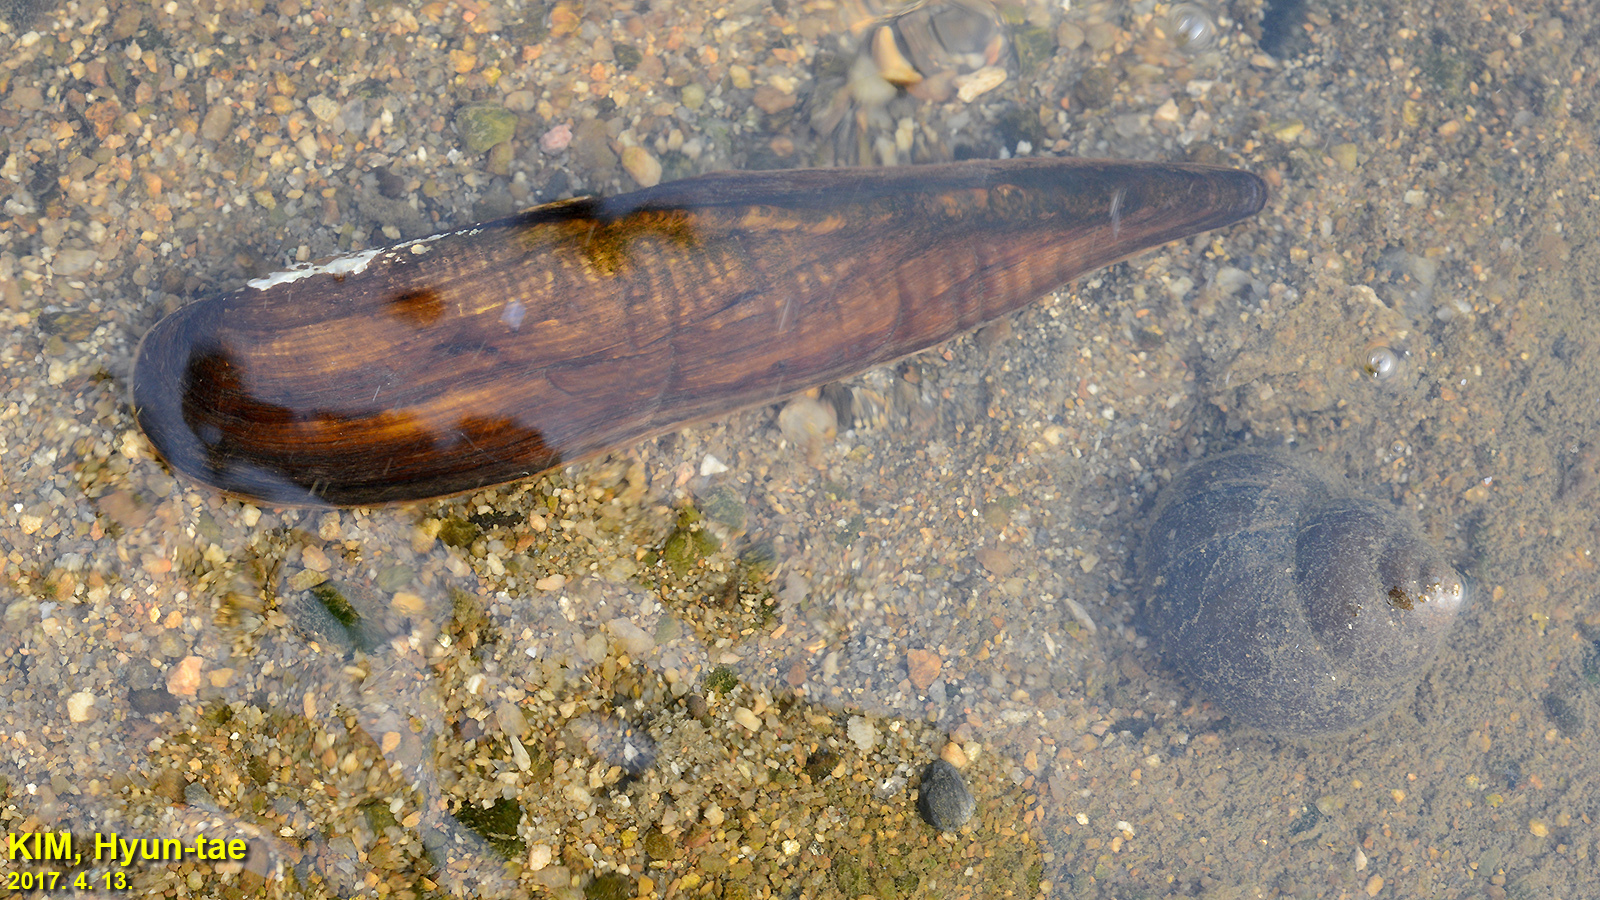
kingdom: Animalia
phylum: Mollusca
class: Bivalvia
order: Unionida
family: Unionidae
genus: Lanceolaria
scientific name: Lanceolaria acrorrhyncha
